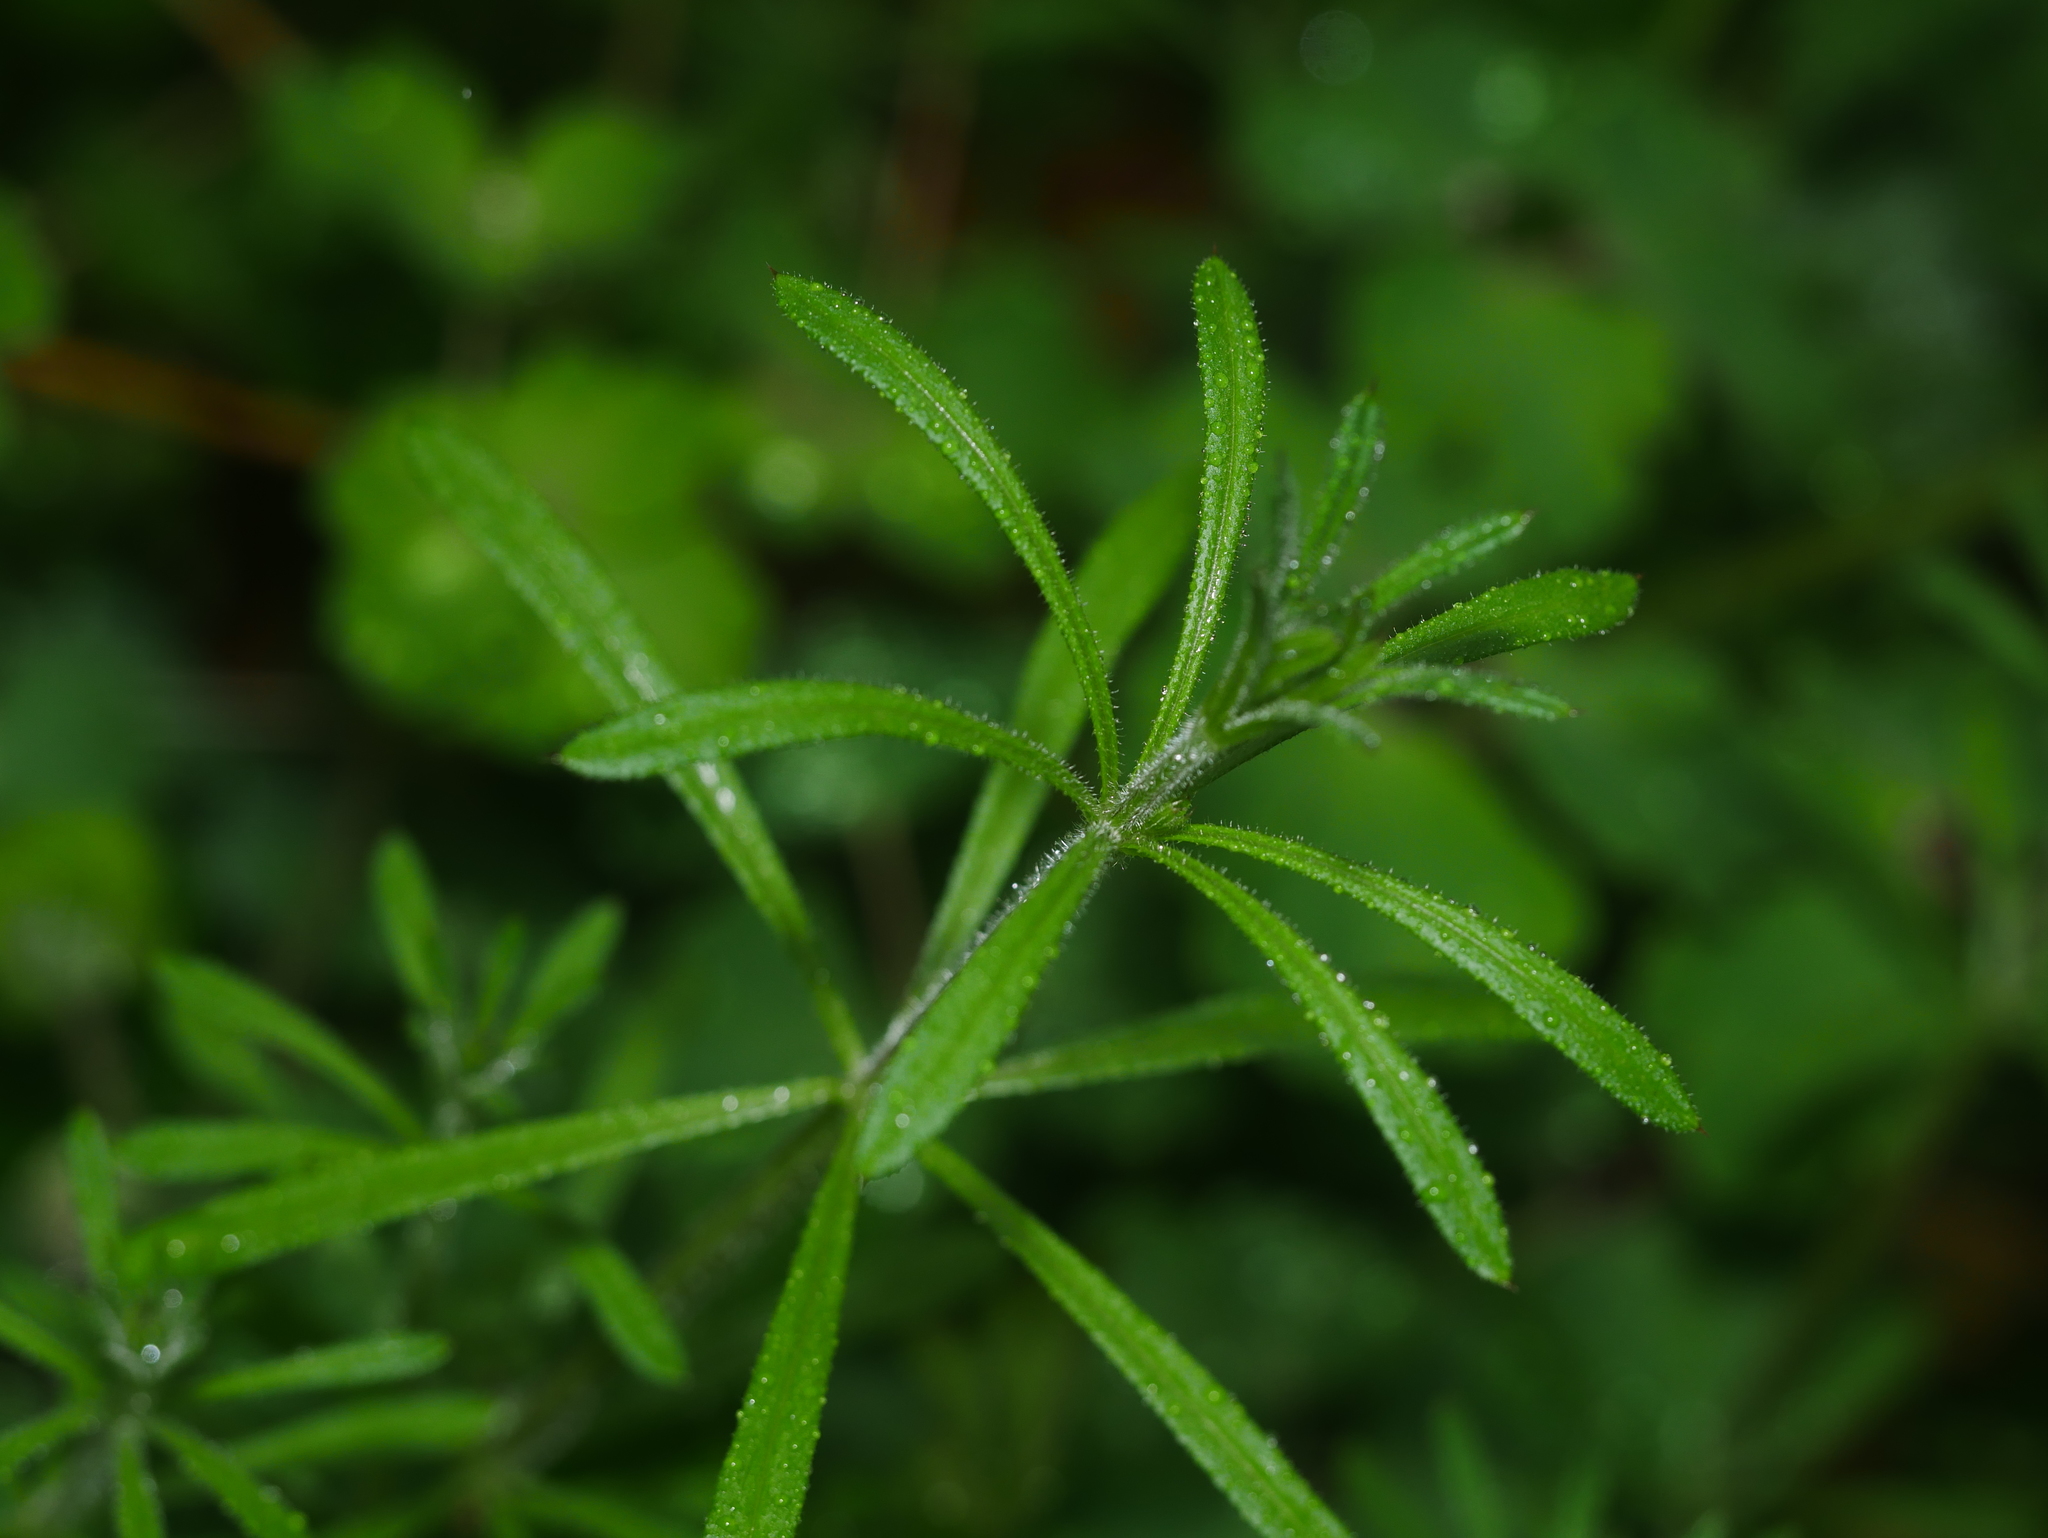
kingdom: Plantae
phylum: Tracheophyta
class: Magnoliopsida
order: Gentianales
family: Rubiaceae
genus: Galium
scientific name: Galium aparine
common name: Cleavers
